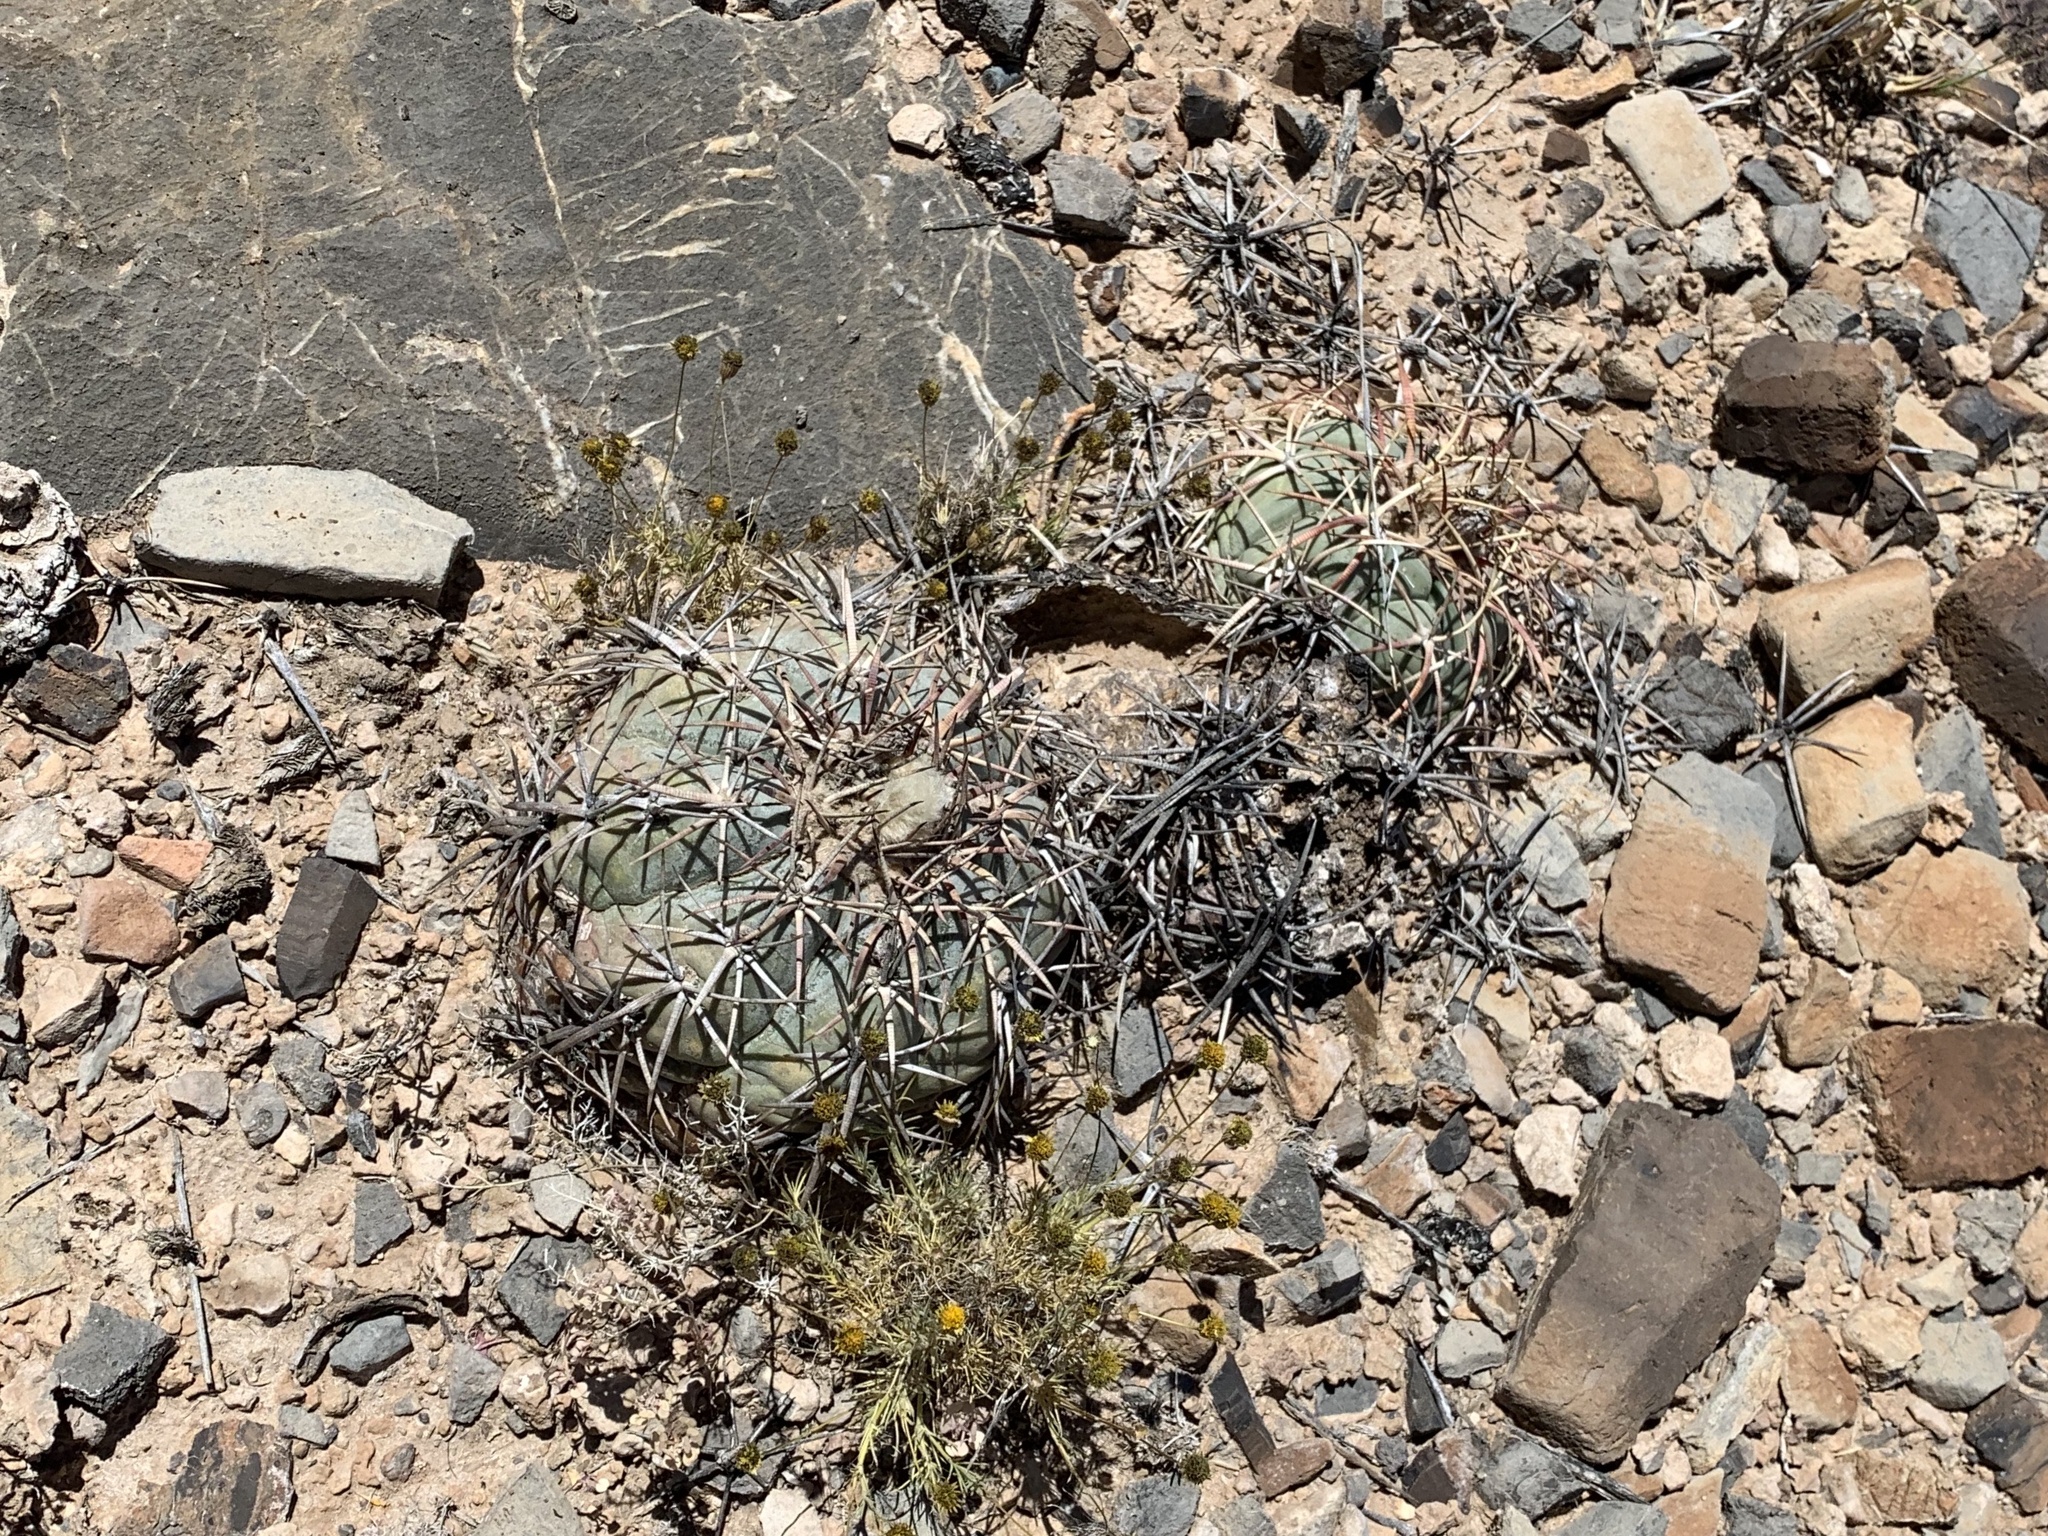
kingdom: Plantae
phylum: Tracheophyta
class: Magnoliopsida
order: Caryophyllales
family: Cactaceae
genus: Echinocactus
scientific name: Echinocactus horizonthalonius
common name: Devilshead
